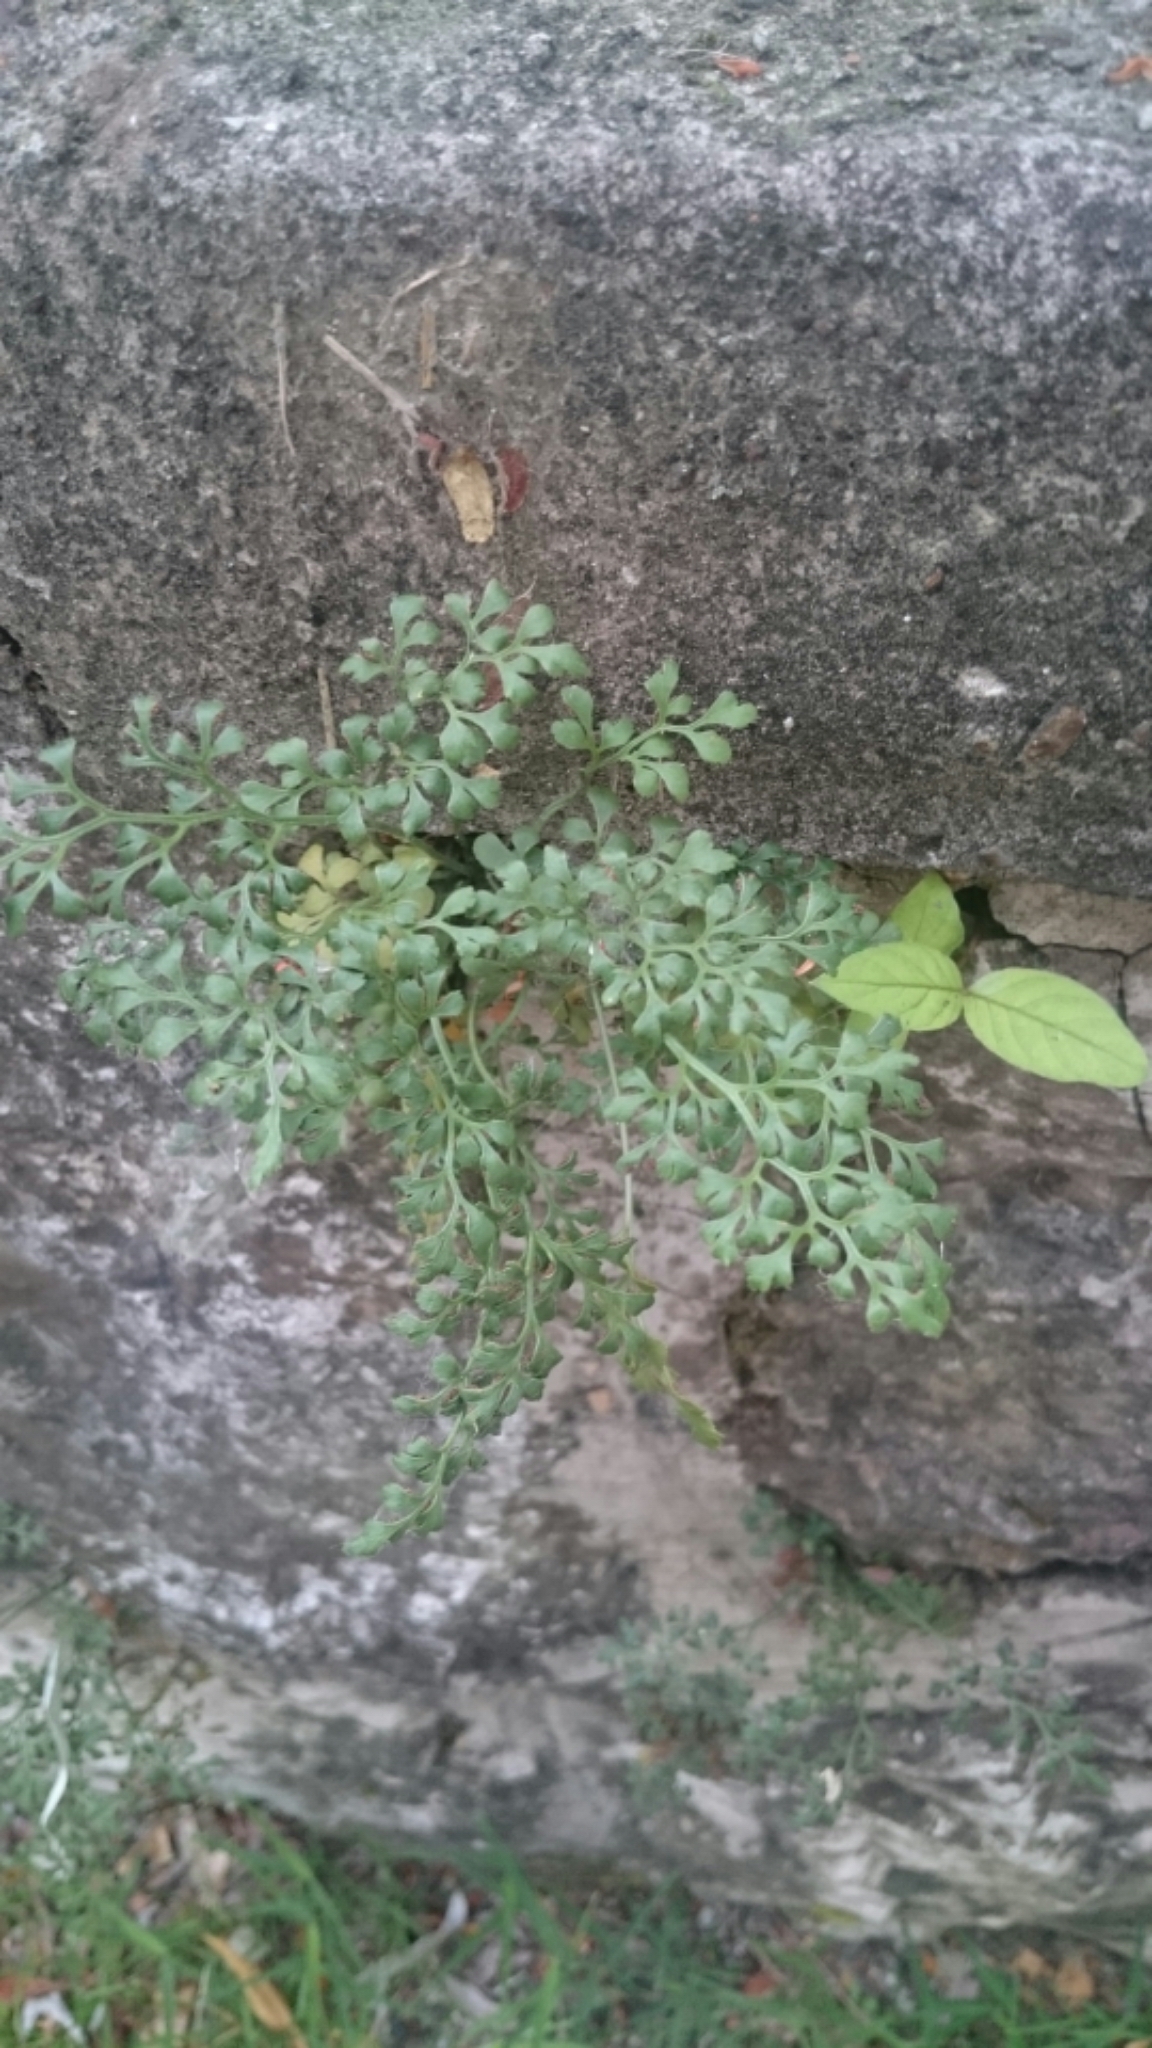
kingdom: Plantae
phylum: Tracheophyta
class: Polypodiopsida
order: Polypodiales
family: Aspleniaceae
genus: Asplenium
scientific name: Asplenium ruta-muraria
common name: Wall-rue
